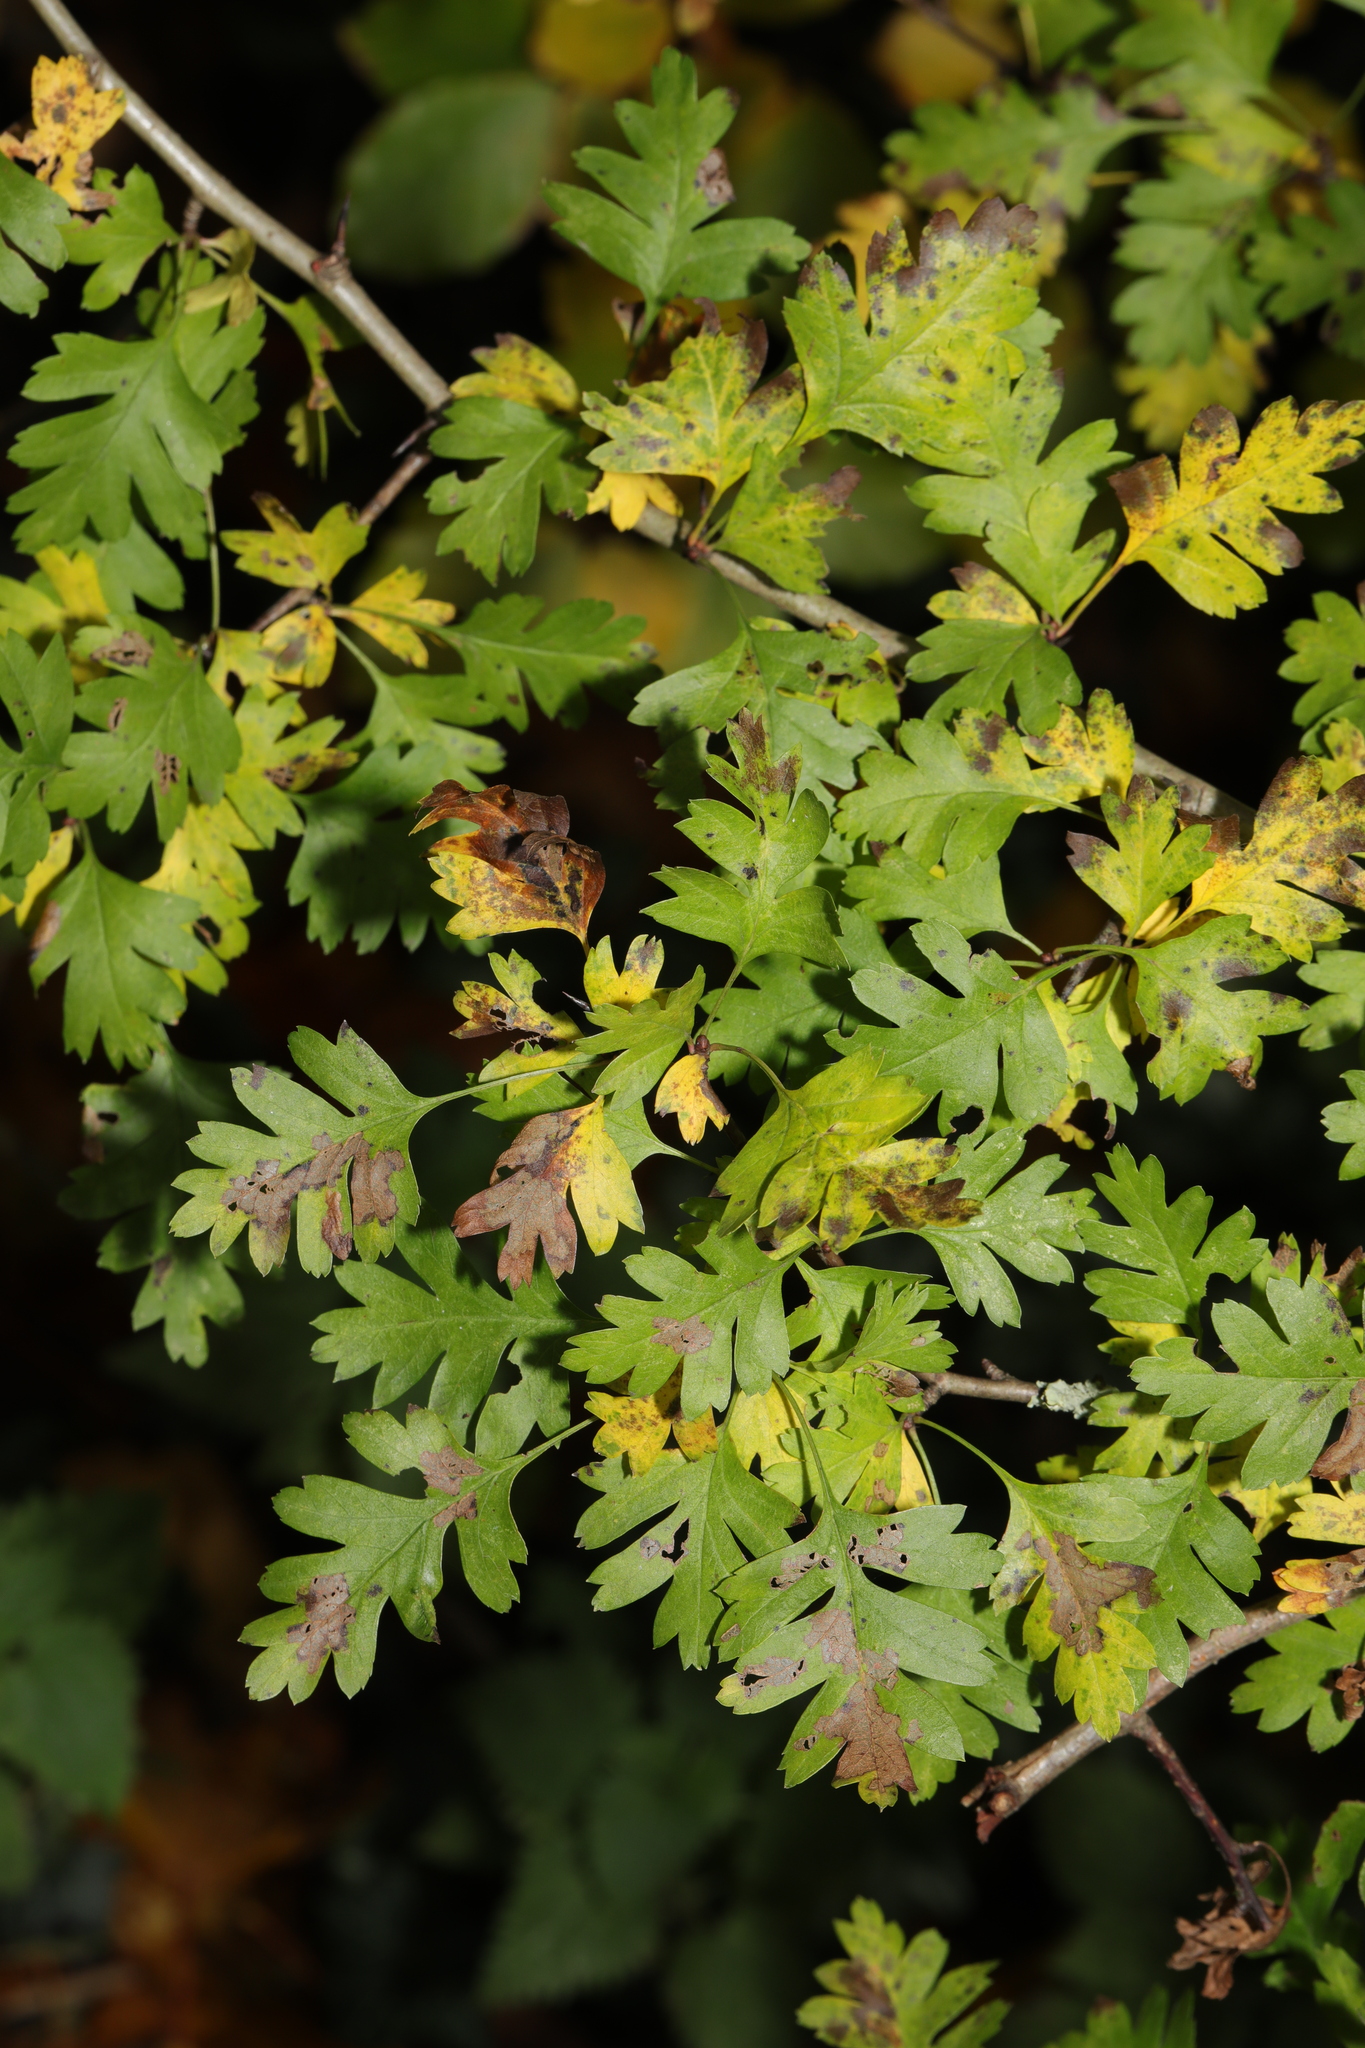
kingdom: Plantae
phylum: Tracheophyta
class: Magnoliopsida
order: Rosales
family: Rosaceae
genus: Crataegus
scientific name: Crataegus monogyna
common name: Hawthorn
